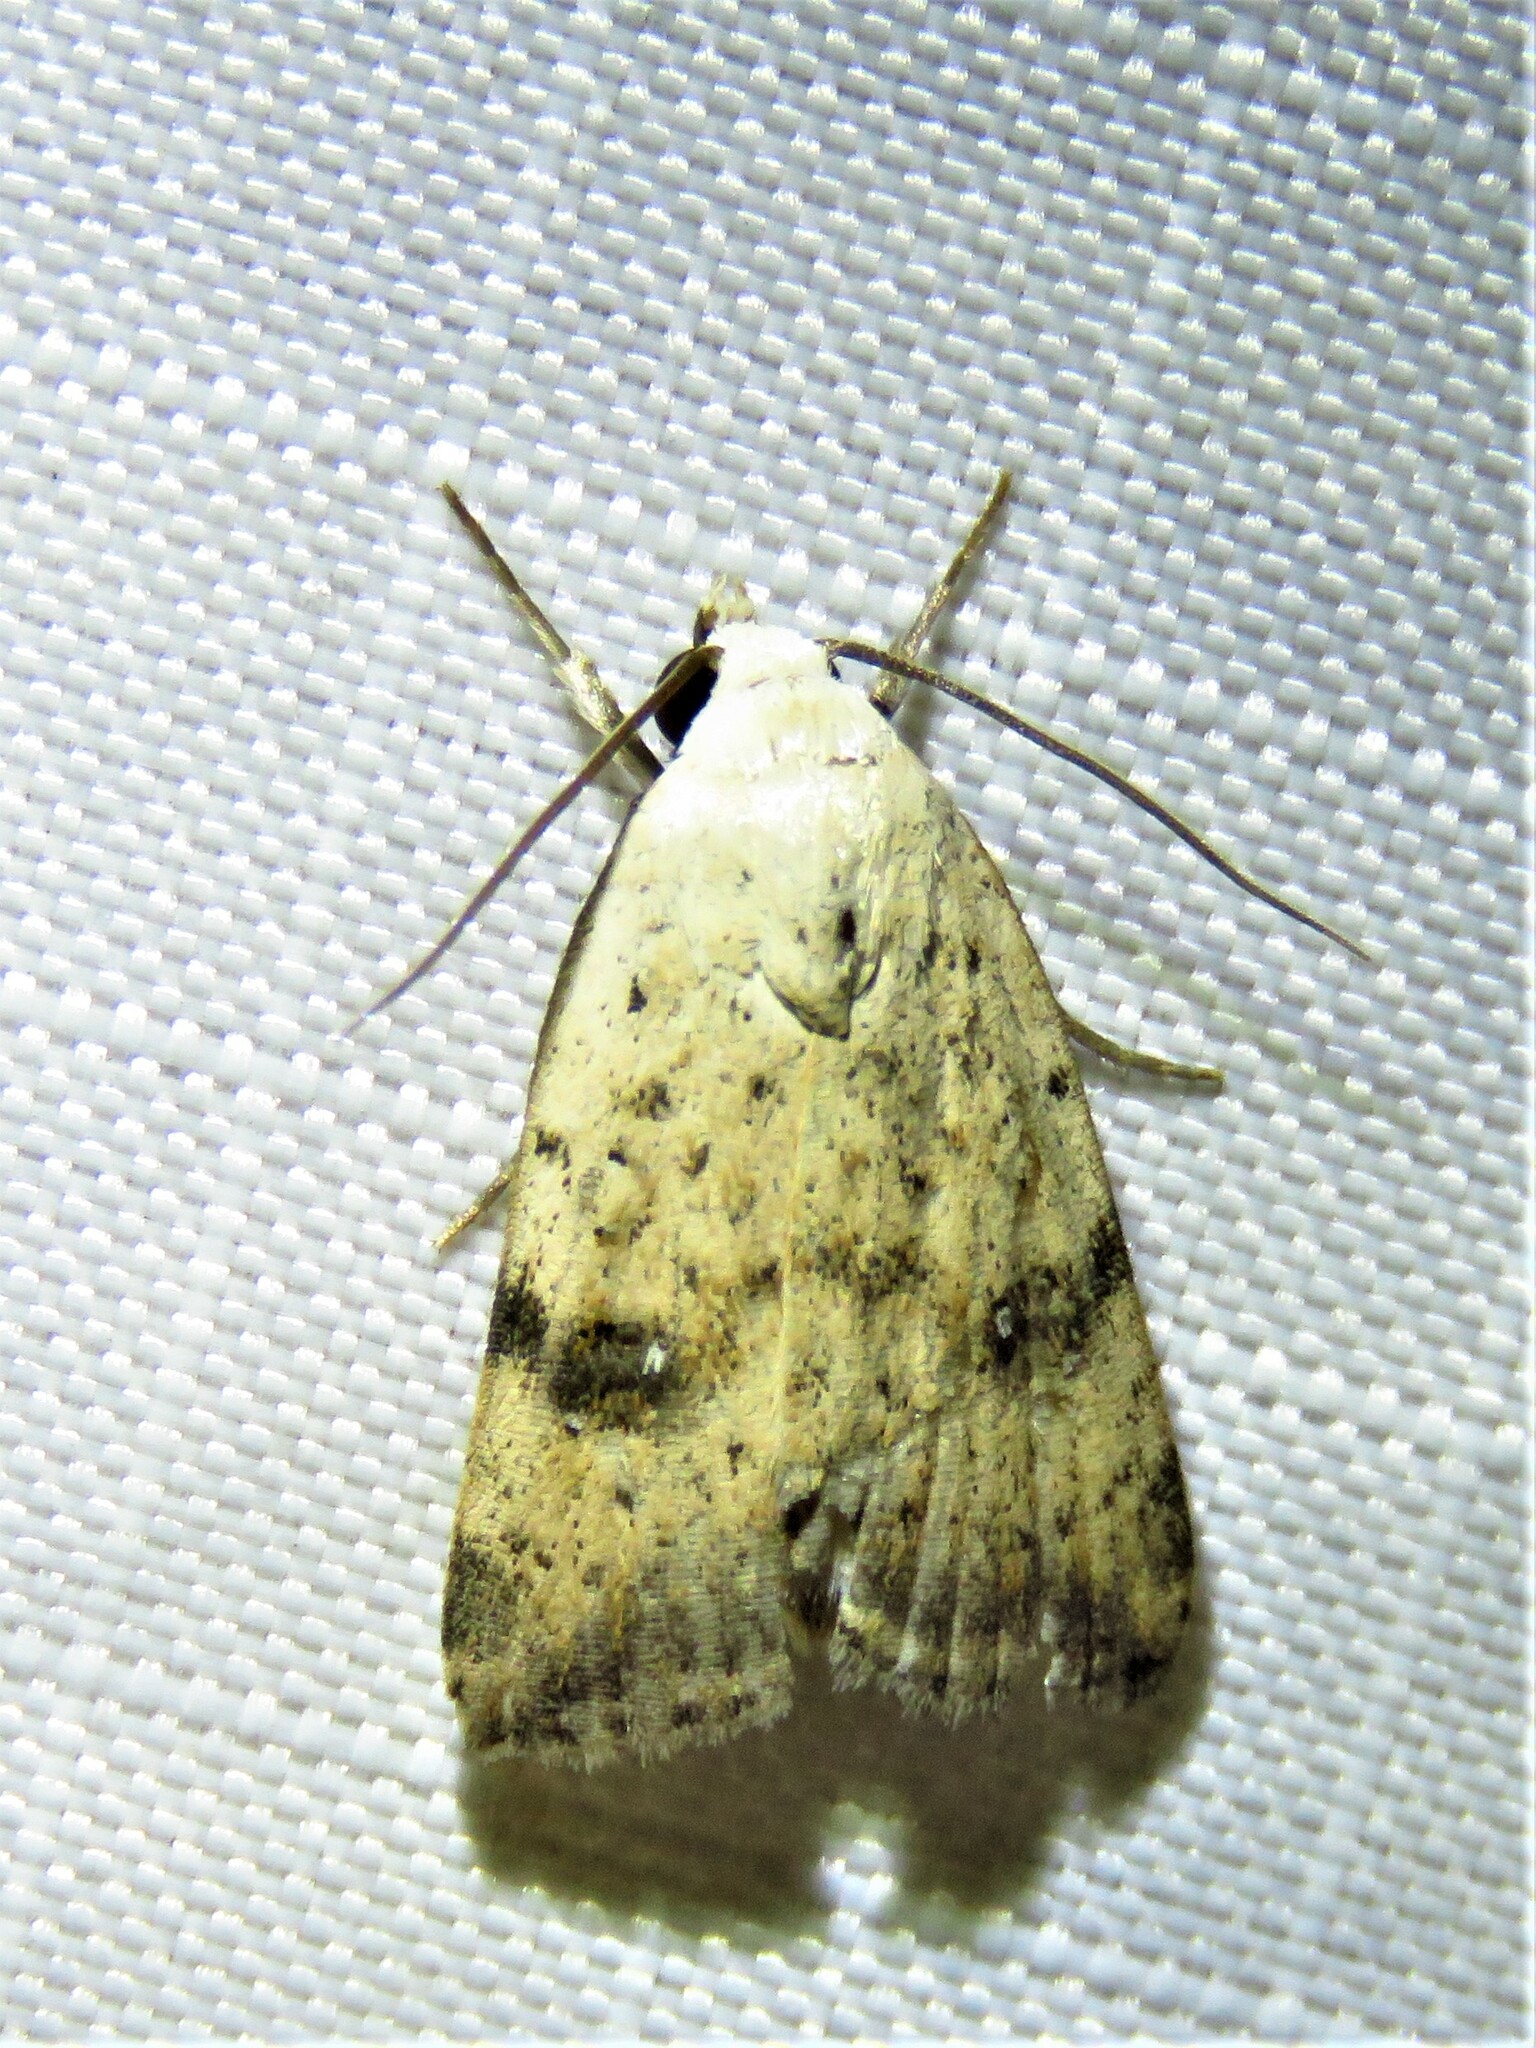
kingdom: Animalia
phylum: Arthropoda
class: Insecta
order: Lepidoptera
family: Noctuidae
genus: Micrathetis
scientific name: Micrathetis triplex
